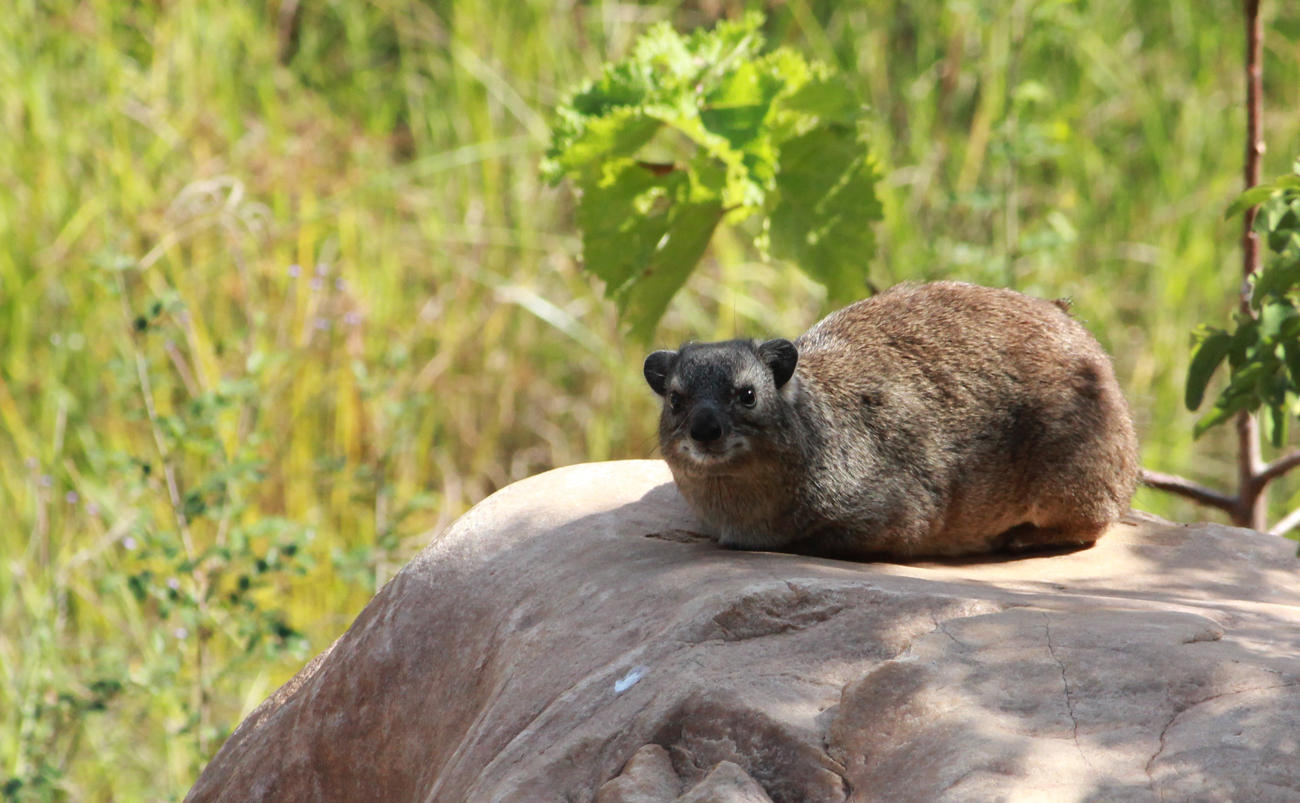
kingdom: Animalia
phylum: Chordata
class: Mammalia
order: Hyracoidea
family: Procaviidae
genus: Heterohyrax
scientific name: Heterohyrax brucei
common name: Bush hyrax
